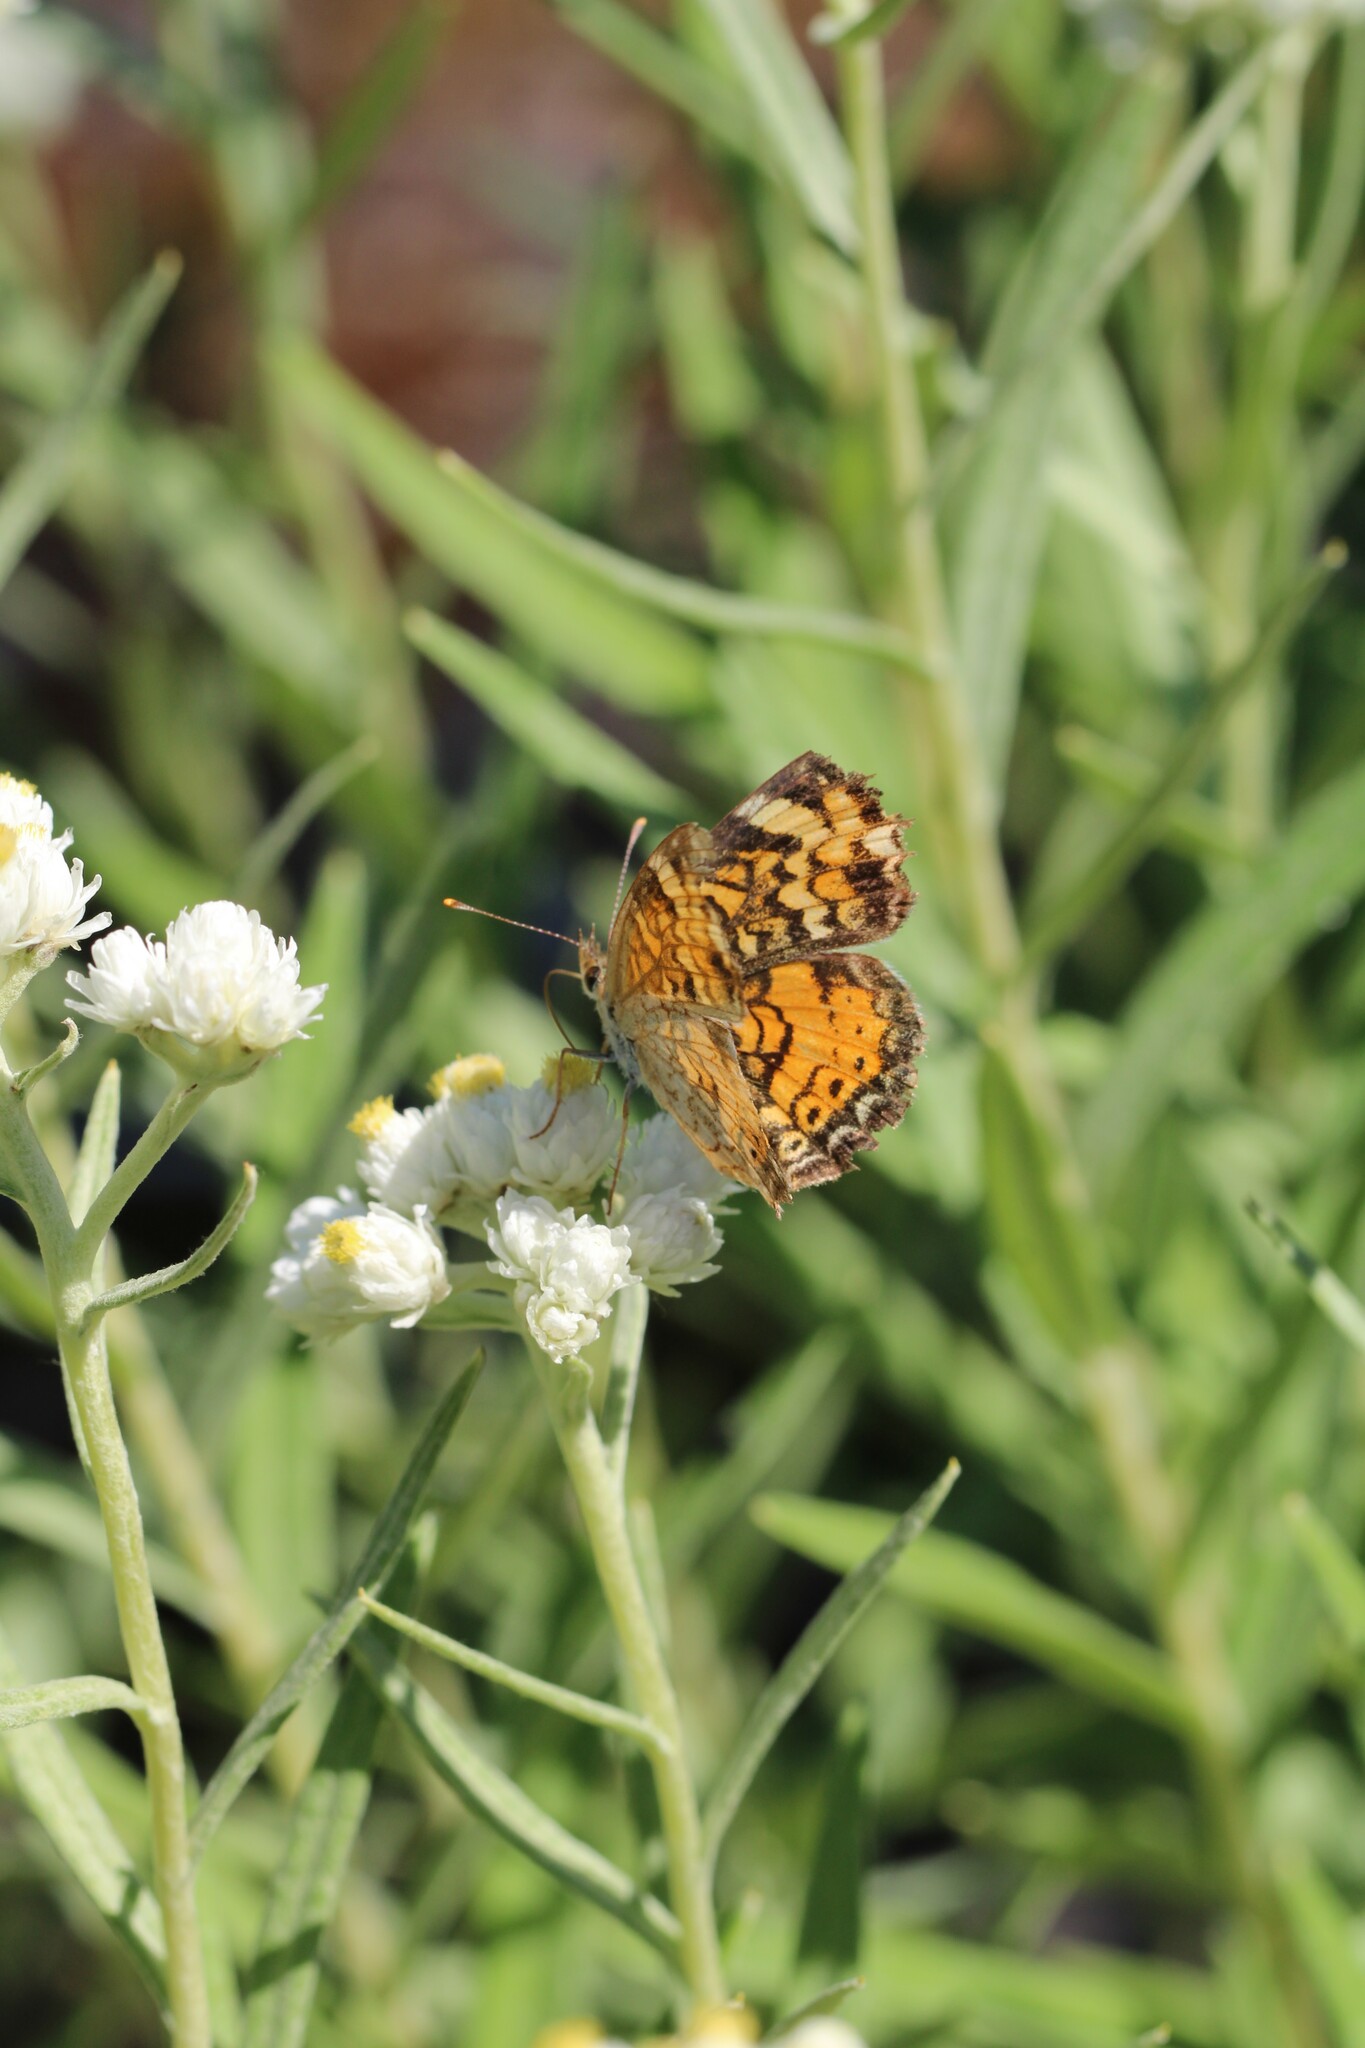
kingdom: Animalia
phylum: Arthropoda
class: Insecta
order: Lepidoptera
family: Nymphalidae
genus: Phyciodes
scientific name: Phyciodes tharos
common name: Pearl crescent
